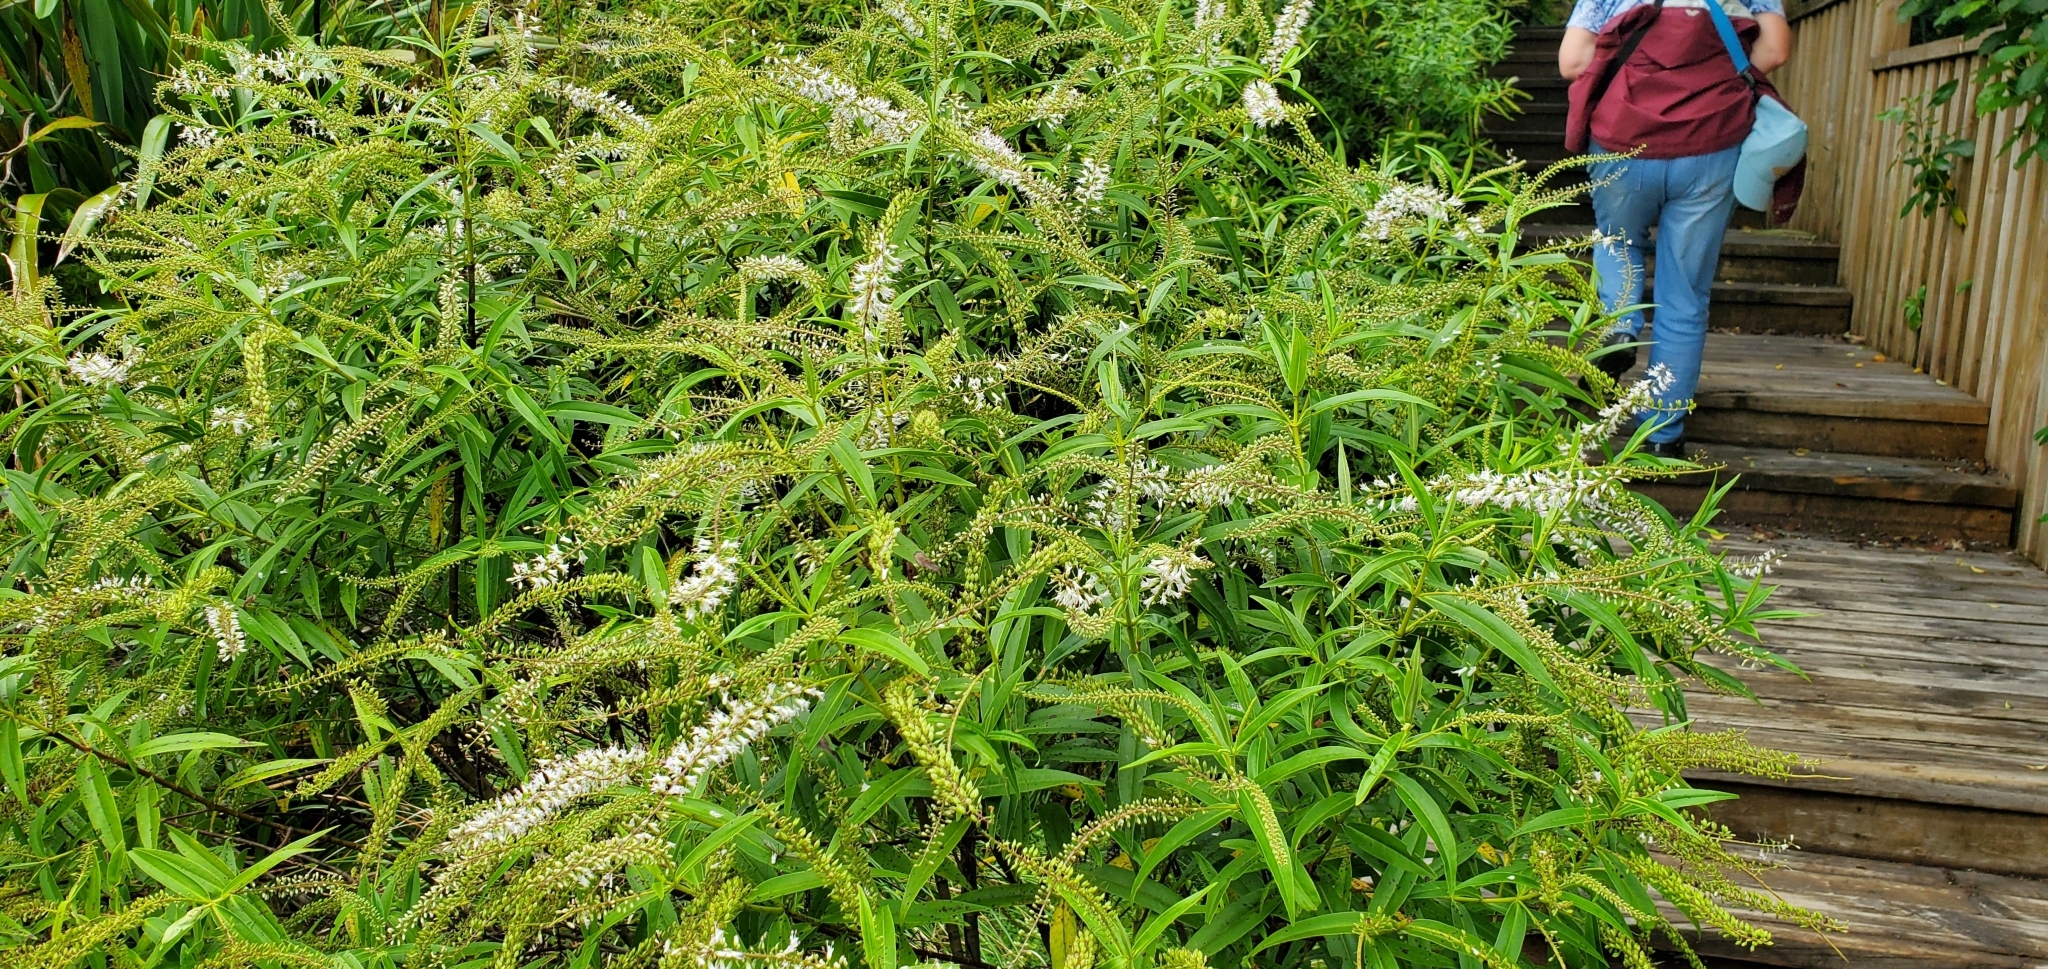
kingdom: Plantae
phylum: Tracheophyta
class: Magnoliopsida
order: Lamiales
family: Plantaginaceae
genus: Veronica
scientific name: Veronica stricta
